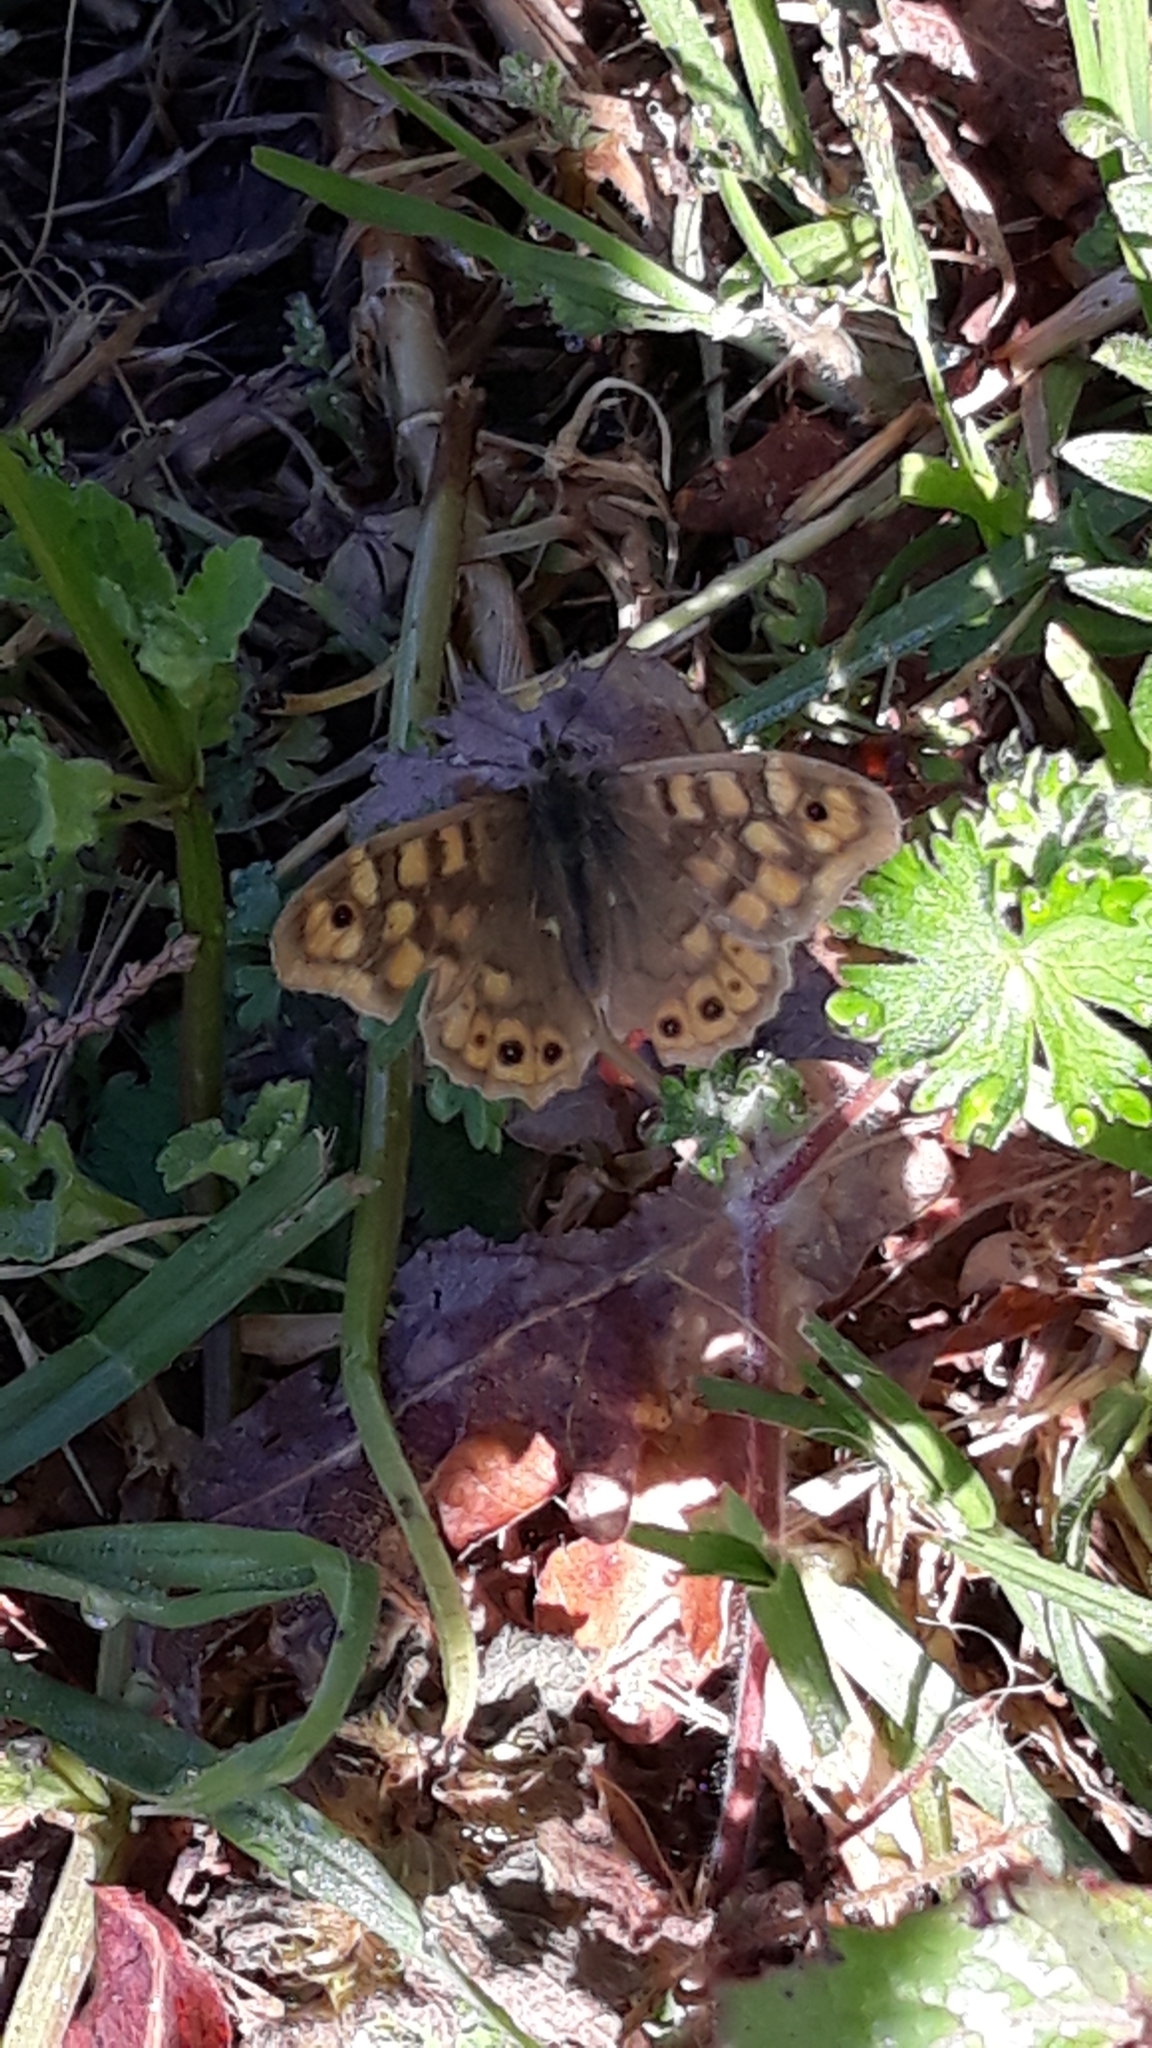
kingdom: Animalia
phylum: Arthropoda
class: Insecta
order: Lepidoptera
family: Nymphalidae
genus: Pararge
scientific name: Pararge aegeria
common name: Speckled wood
